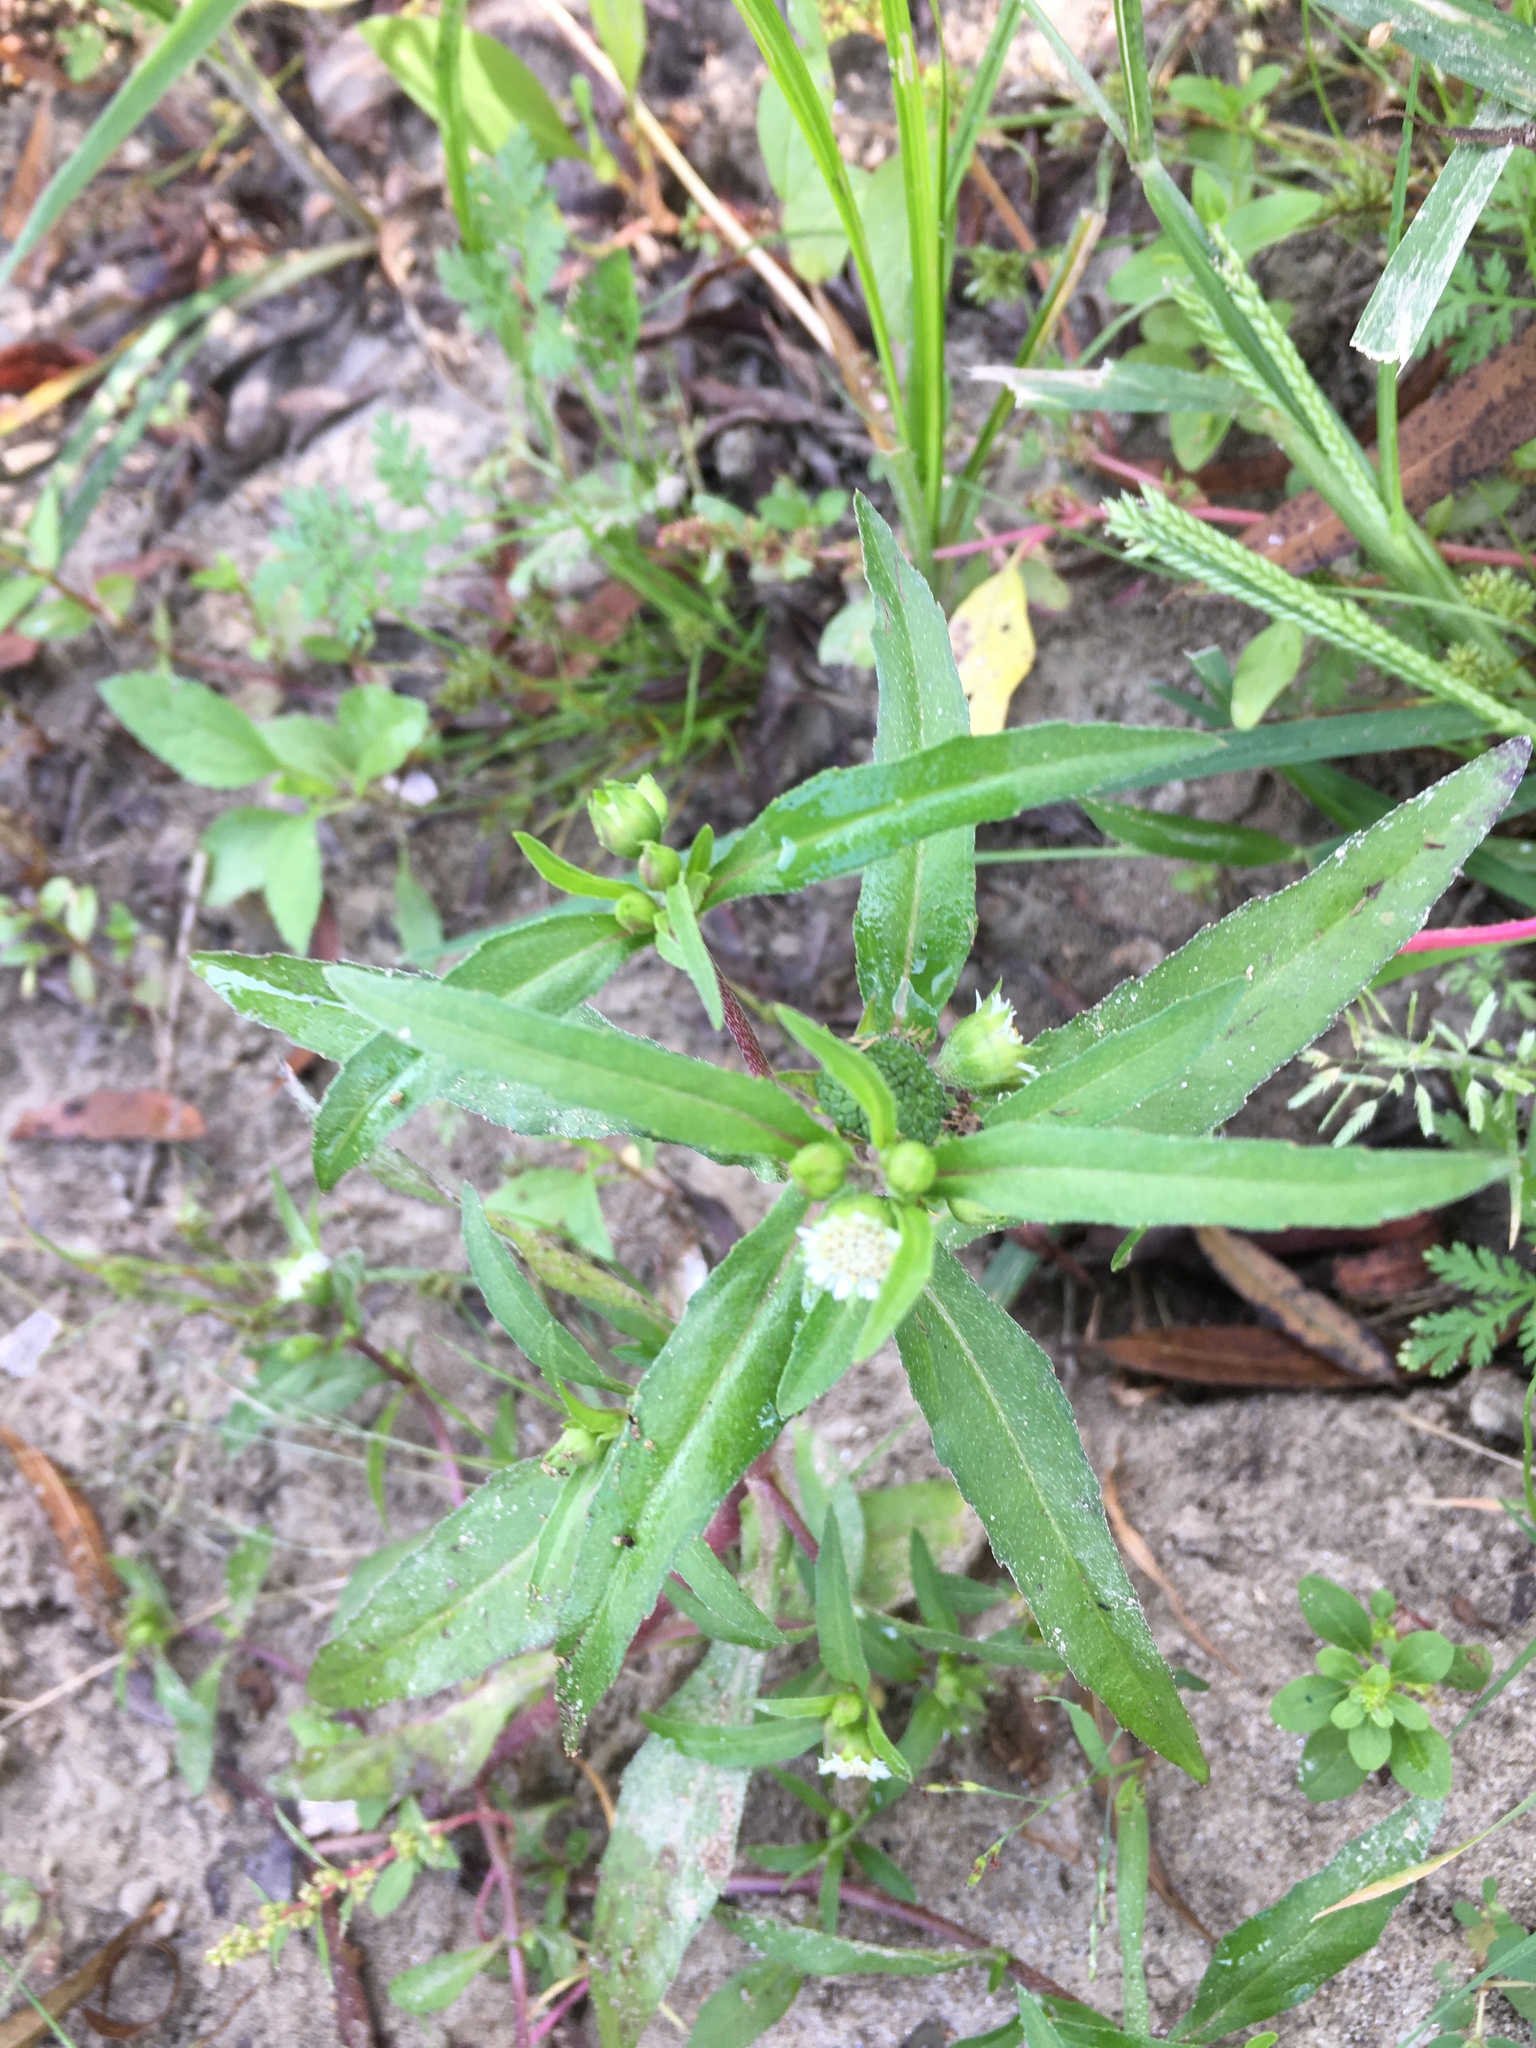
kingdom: Plantae
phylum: Tracheophyta
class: Magnoliopsida
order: Asterales
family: Asteraceae
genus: Eclipta
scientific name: Eclipta prostrata
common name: False daisy
